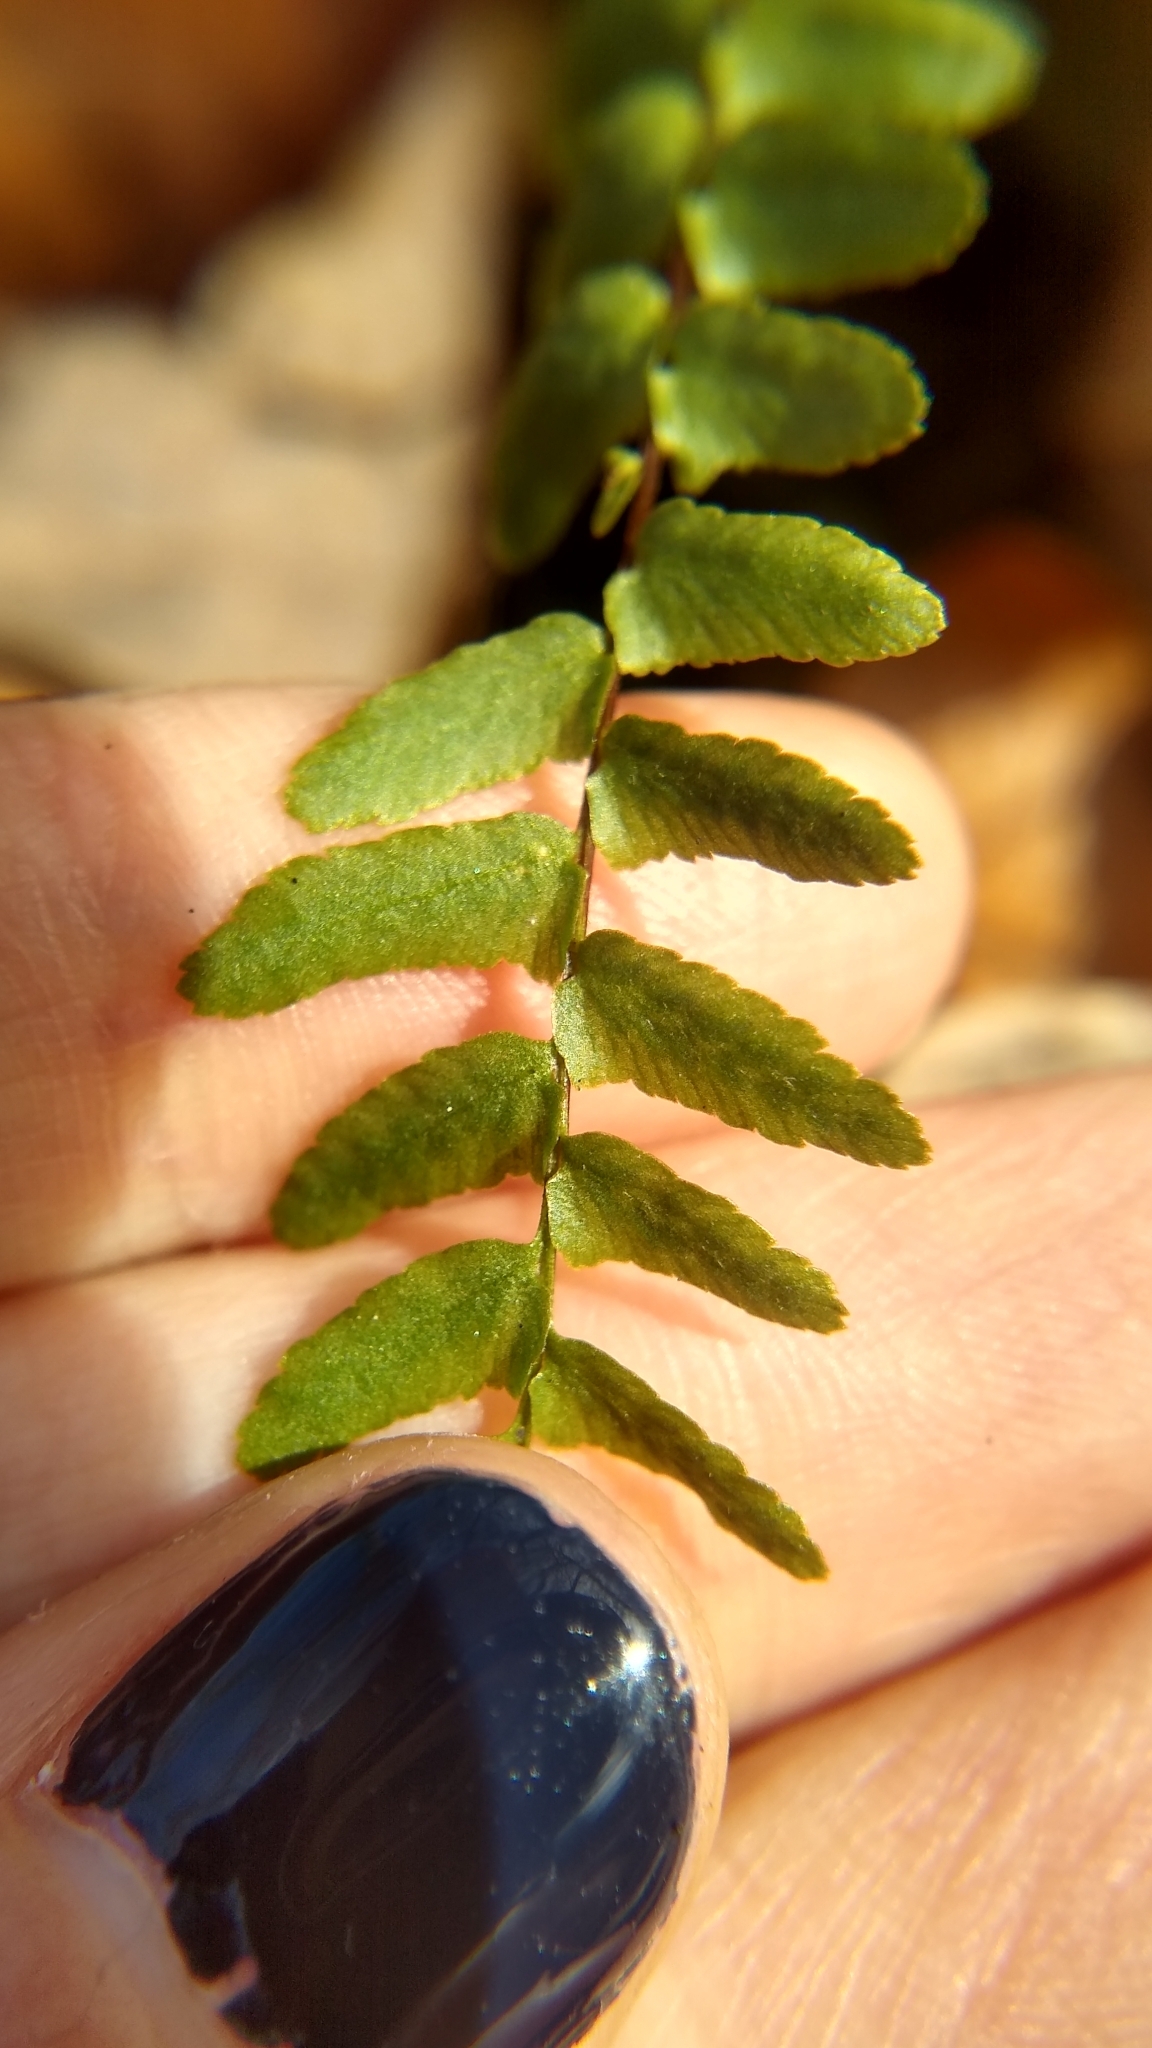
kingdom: Plantae
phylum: Tracheophyta
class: Polypodiopsida
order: Polypodiales
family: Aspleniaceae
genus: Asplenium
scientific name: Asplenium platyneuron
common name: Ebony spleenwort
